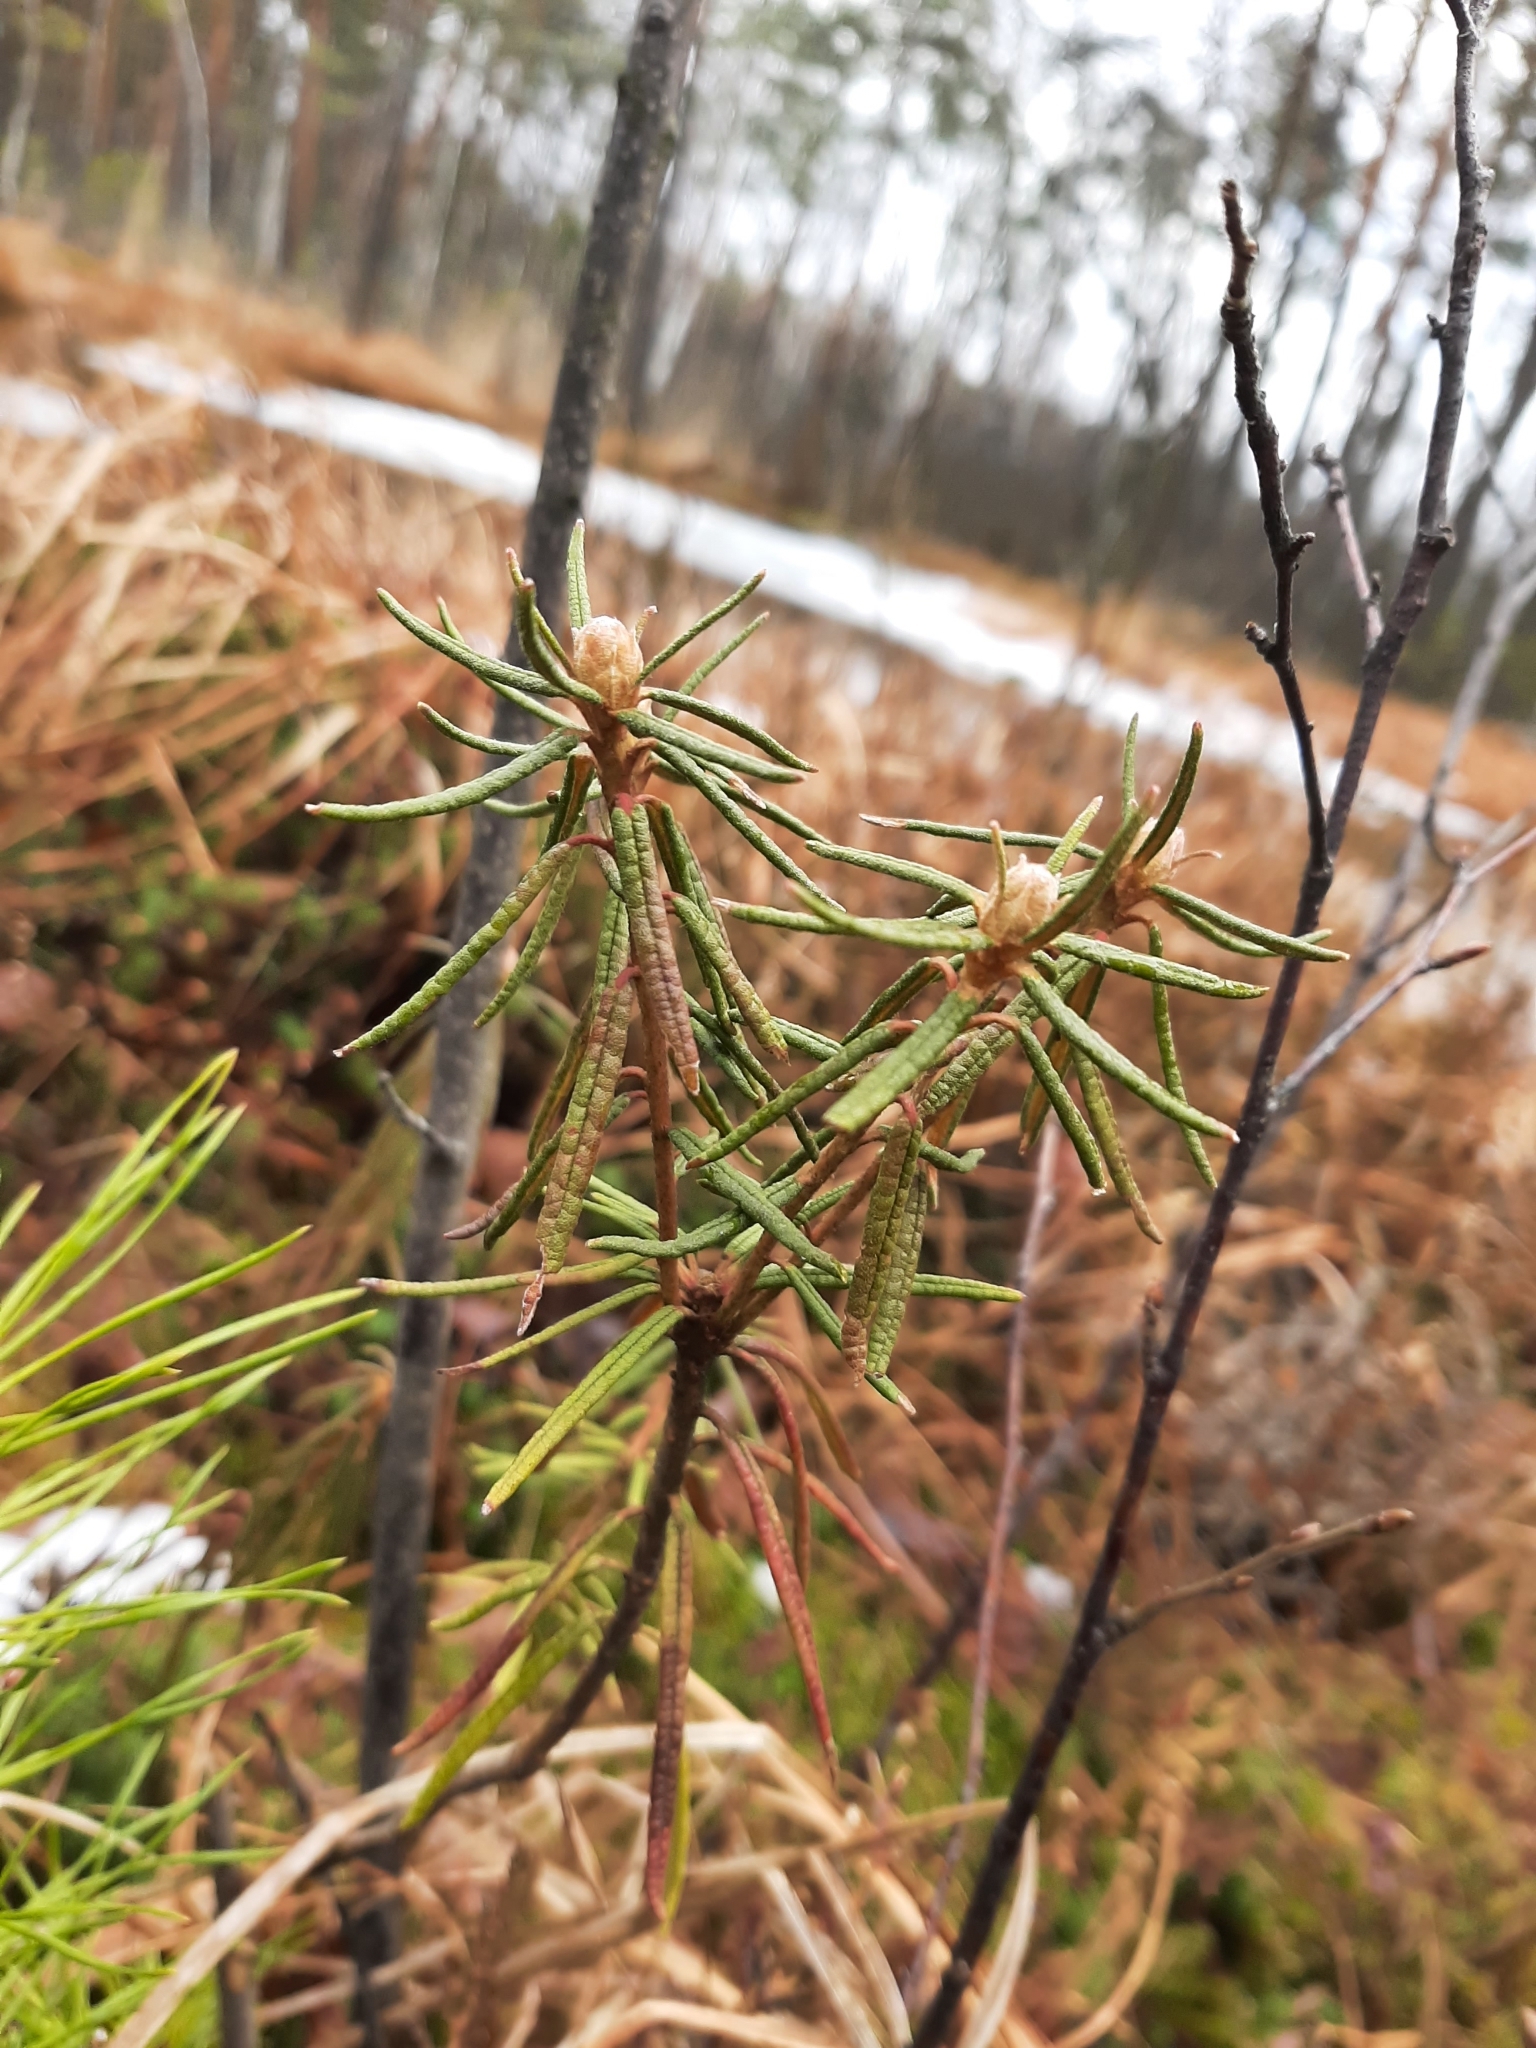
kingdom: Plantae
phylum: Tracheophyta
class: Magnoliopsida
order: Ericales
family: Ericaceae
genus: Rhododendron
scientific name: Rhododendron tomentosum
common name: Marsh labrador tea
